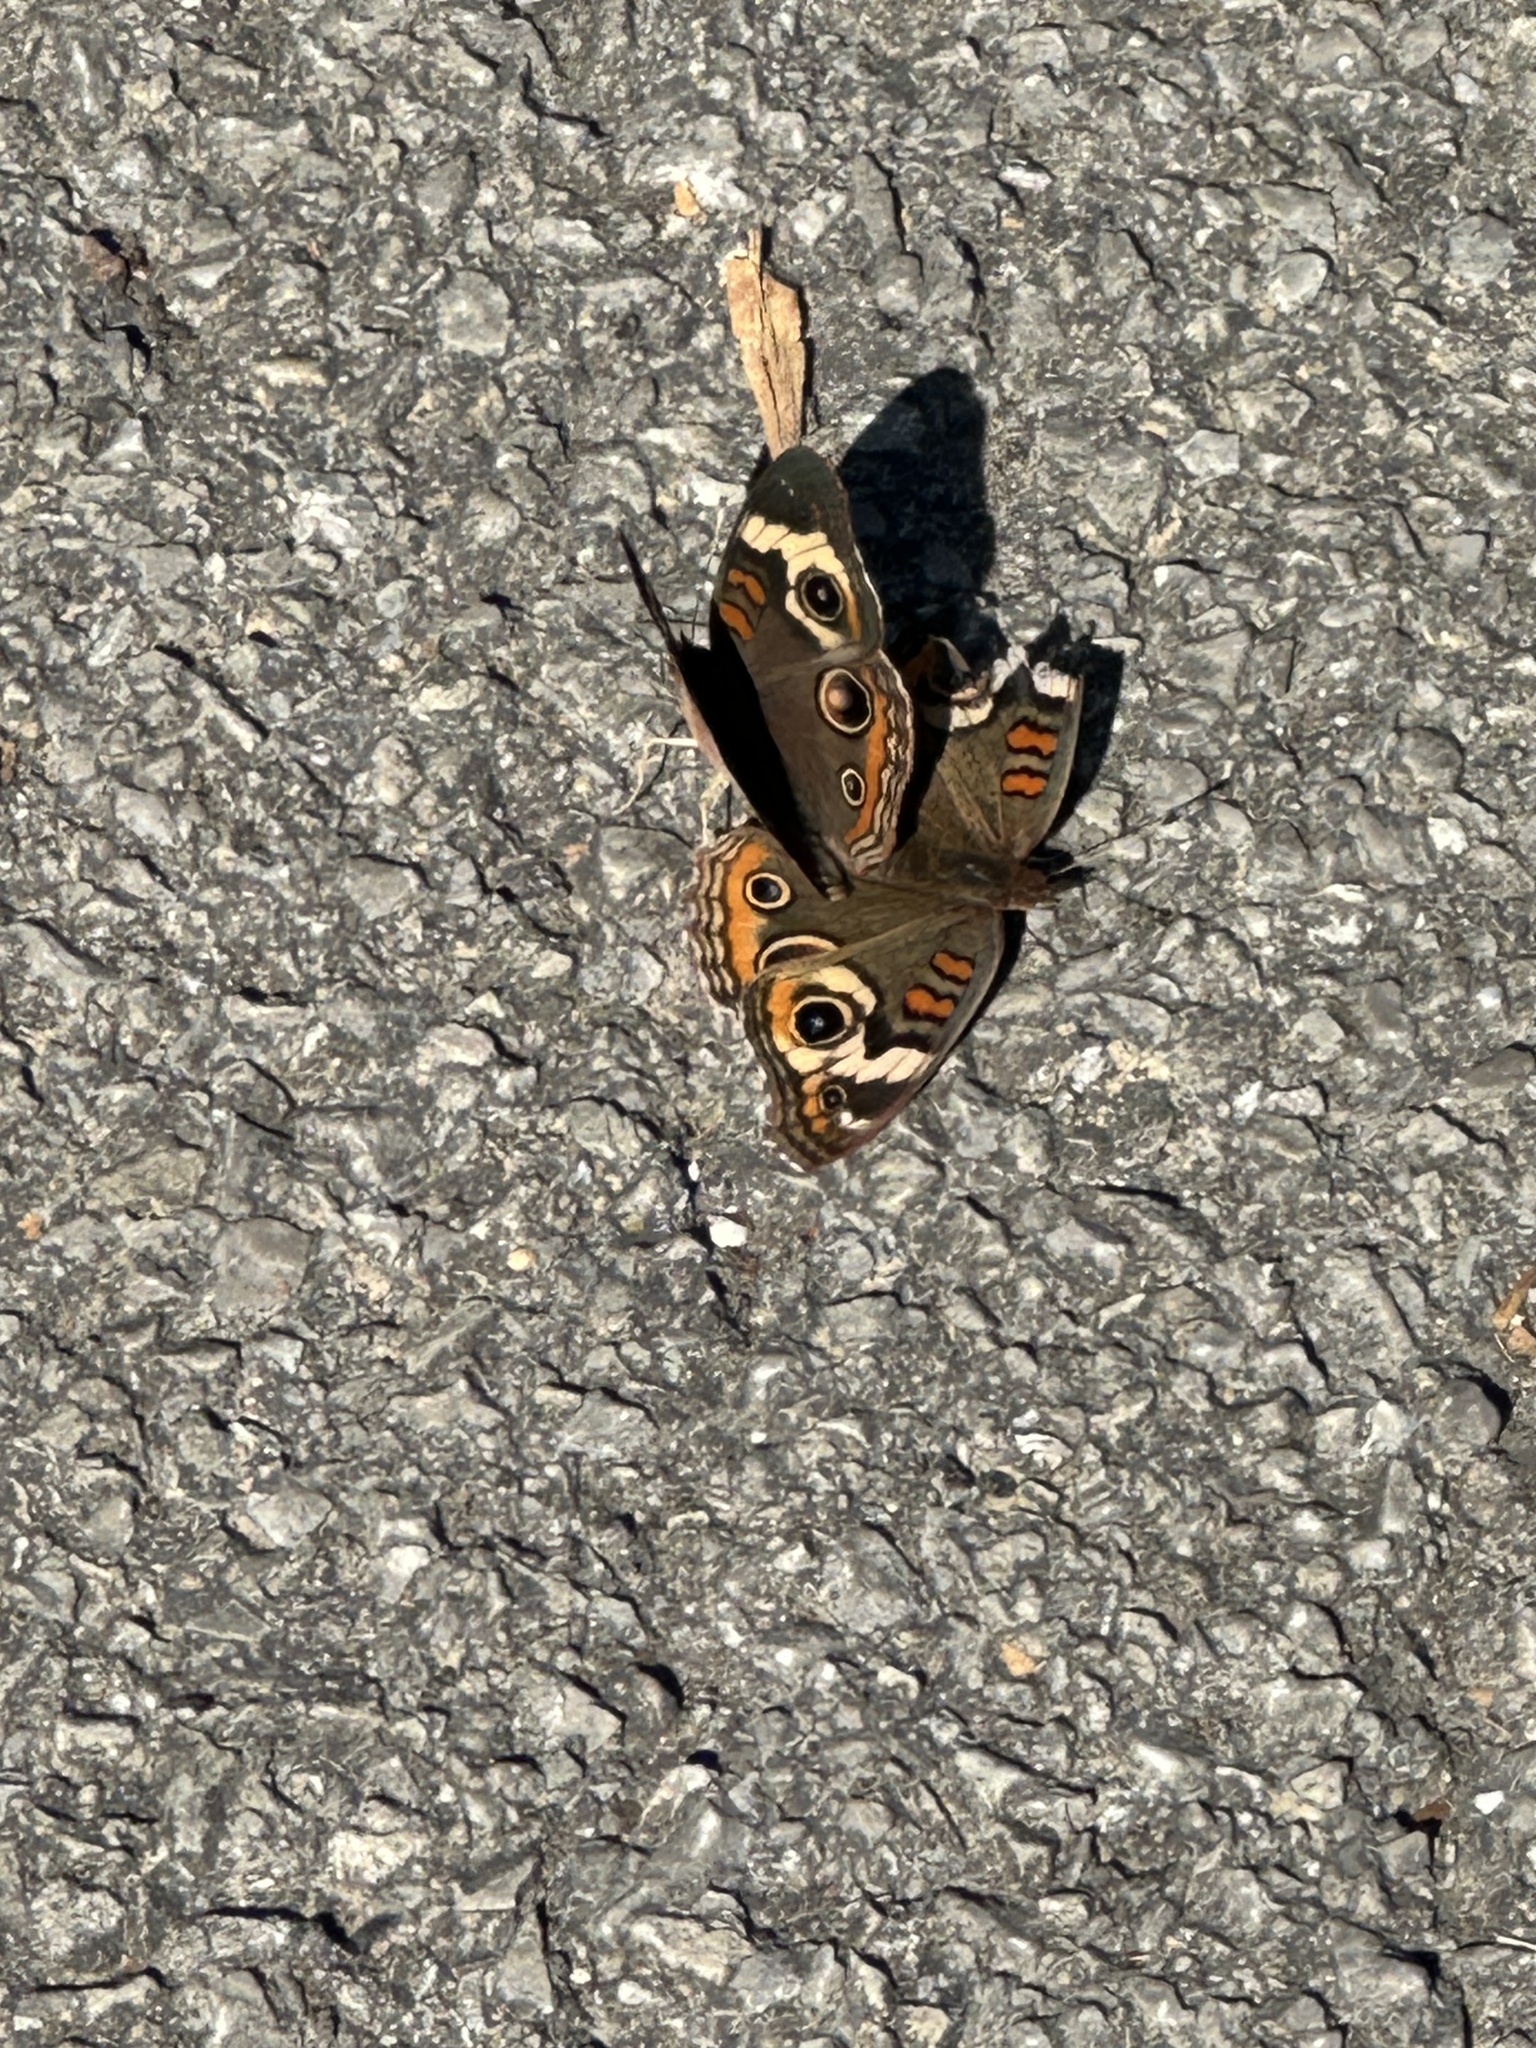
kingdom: Animalia
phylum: Arthropoda
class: Insecta
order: Lepidoptera
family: Nymphalidae
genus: Junonia
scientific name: Junonia coenia
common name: Common buckeye
